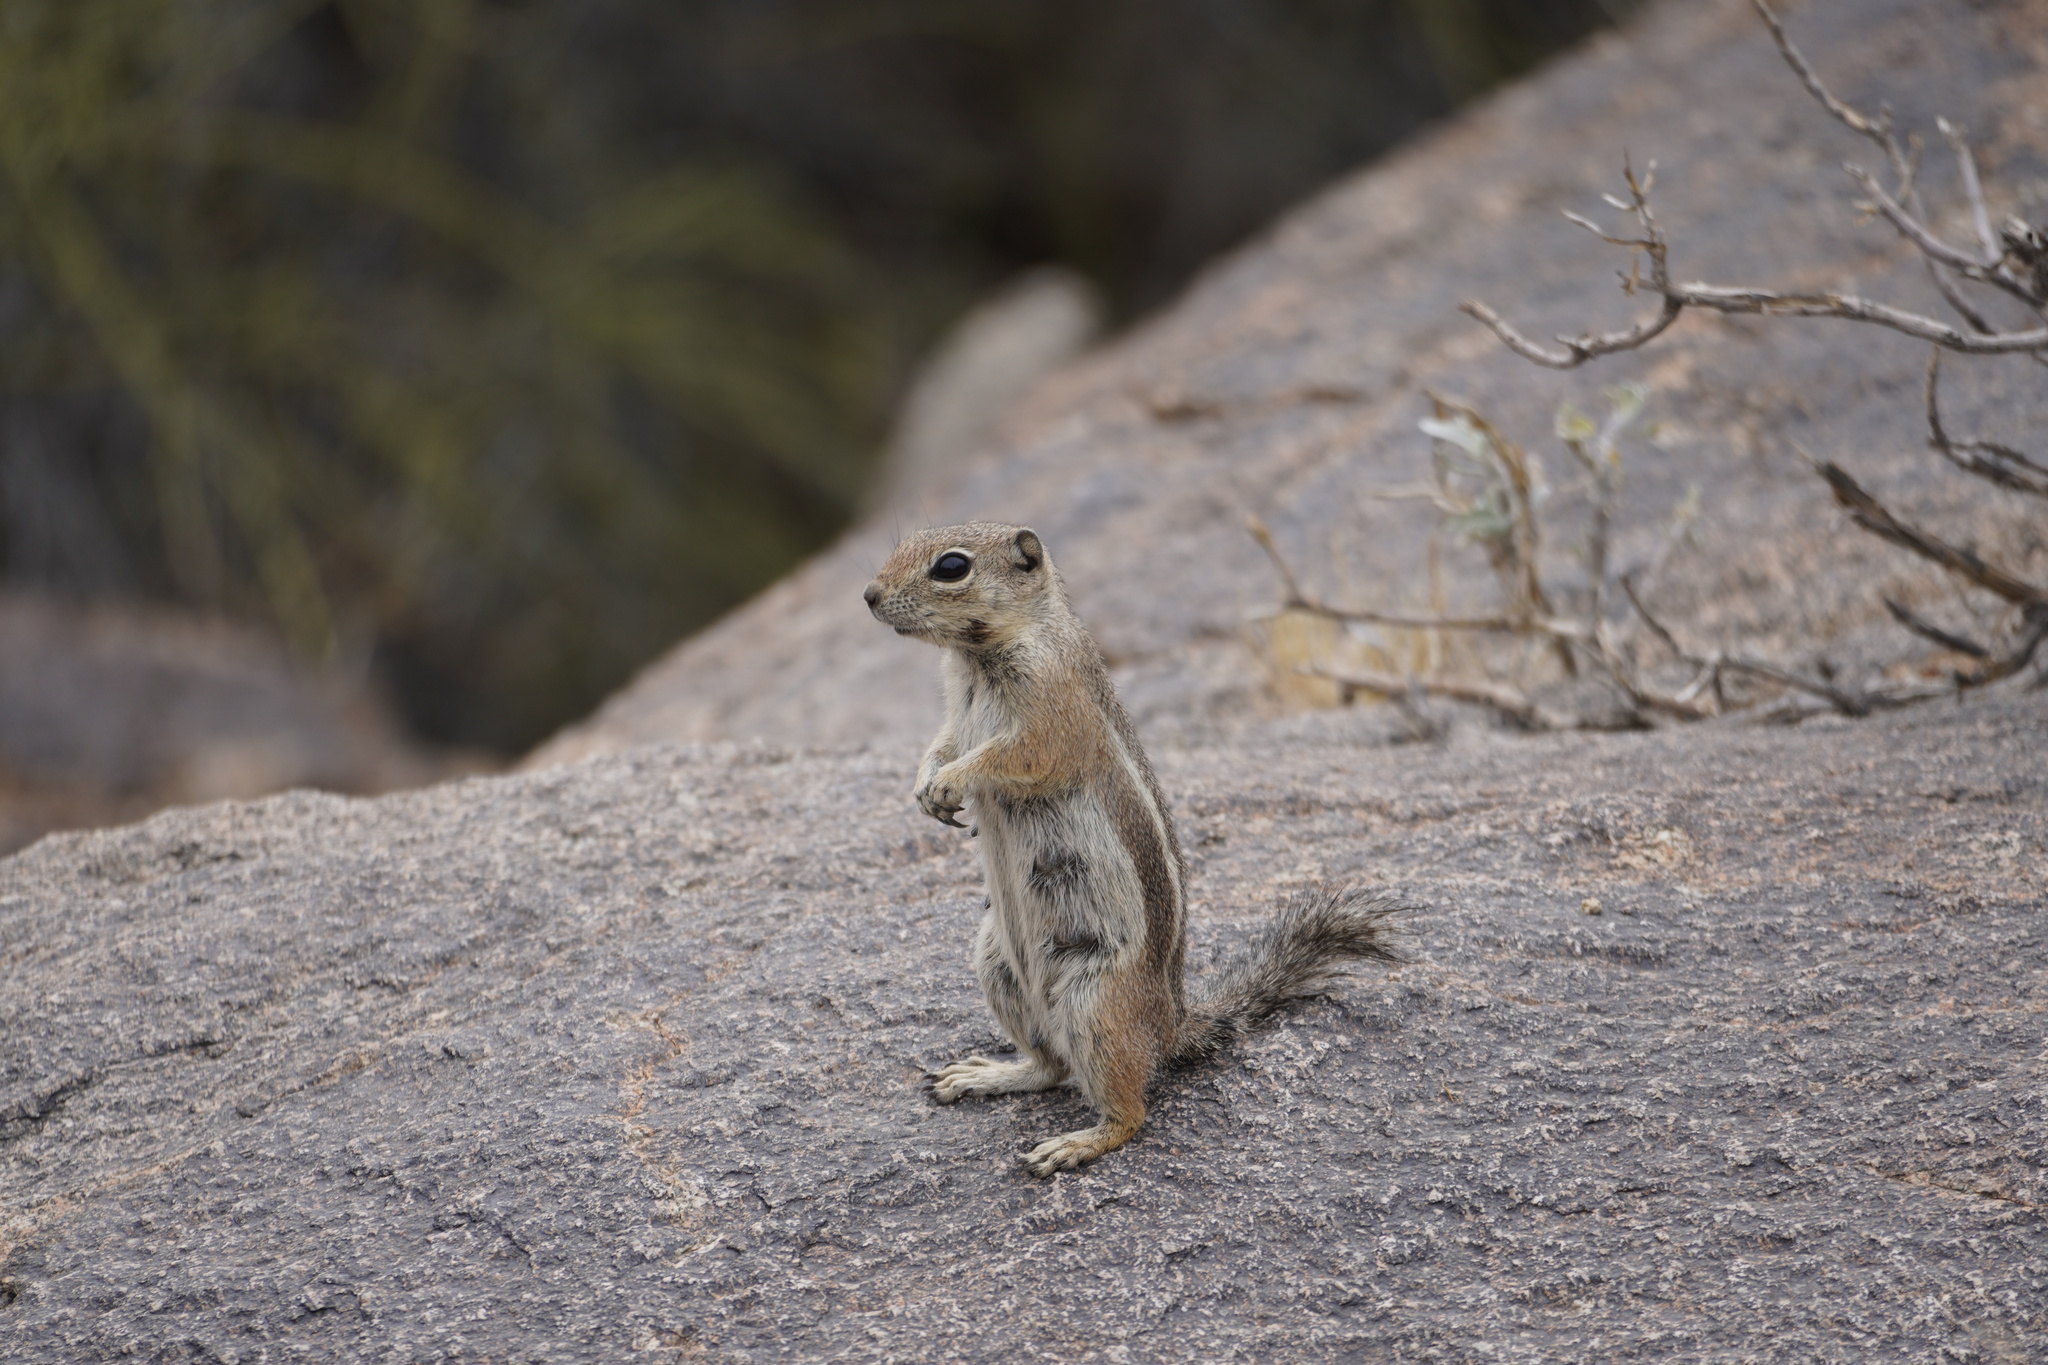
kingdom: Animalia
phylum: Chordata
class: Mammalia
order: Rodentia
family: Sciuridae
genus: Ammospermophilus
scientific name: Ammospermophilus harrisii
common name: Harris's antelope squirrel
